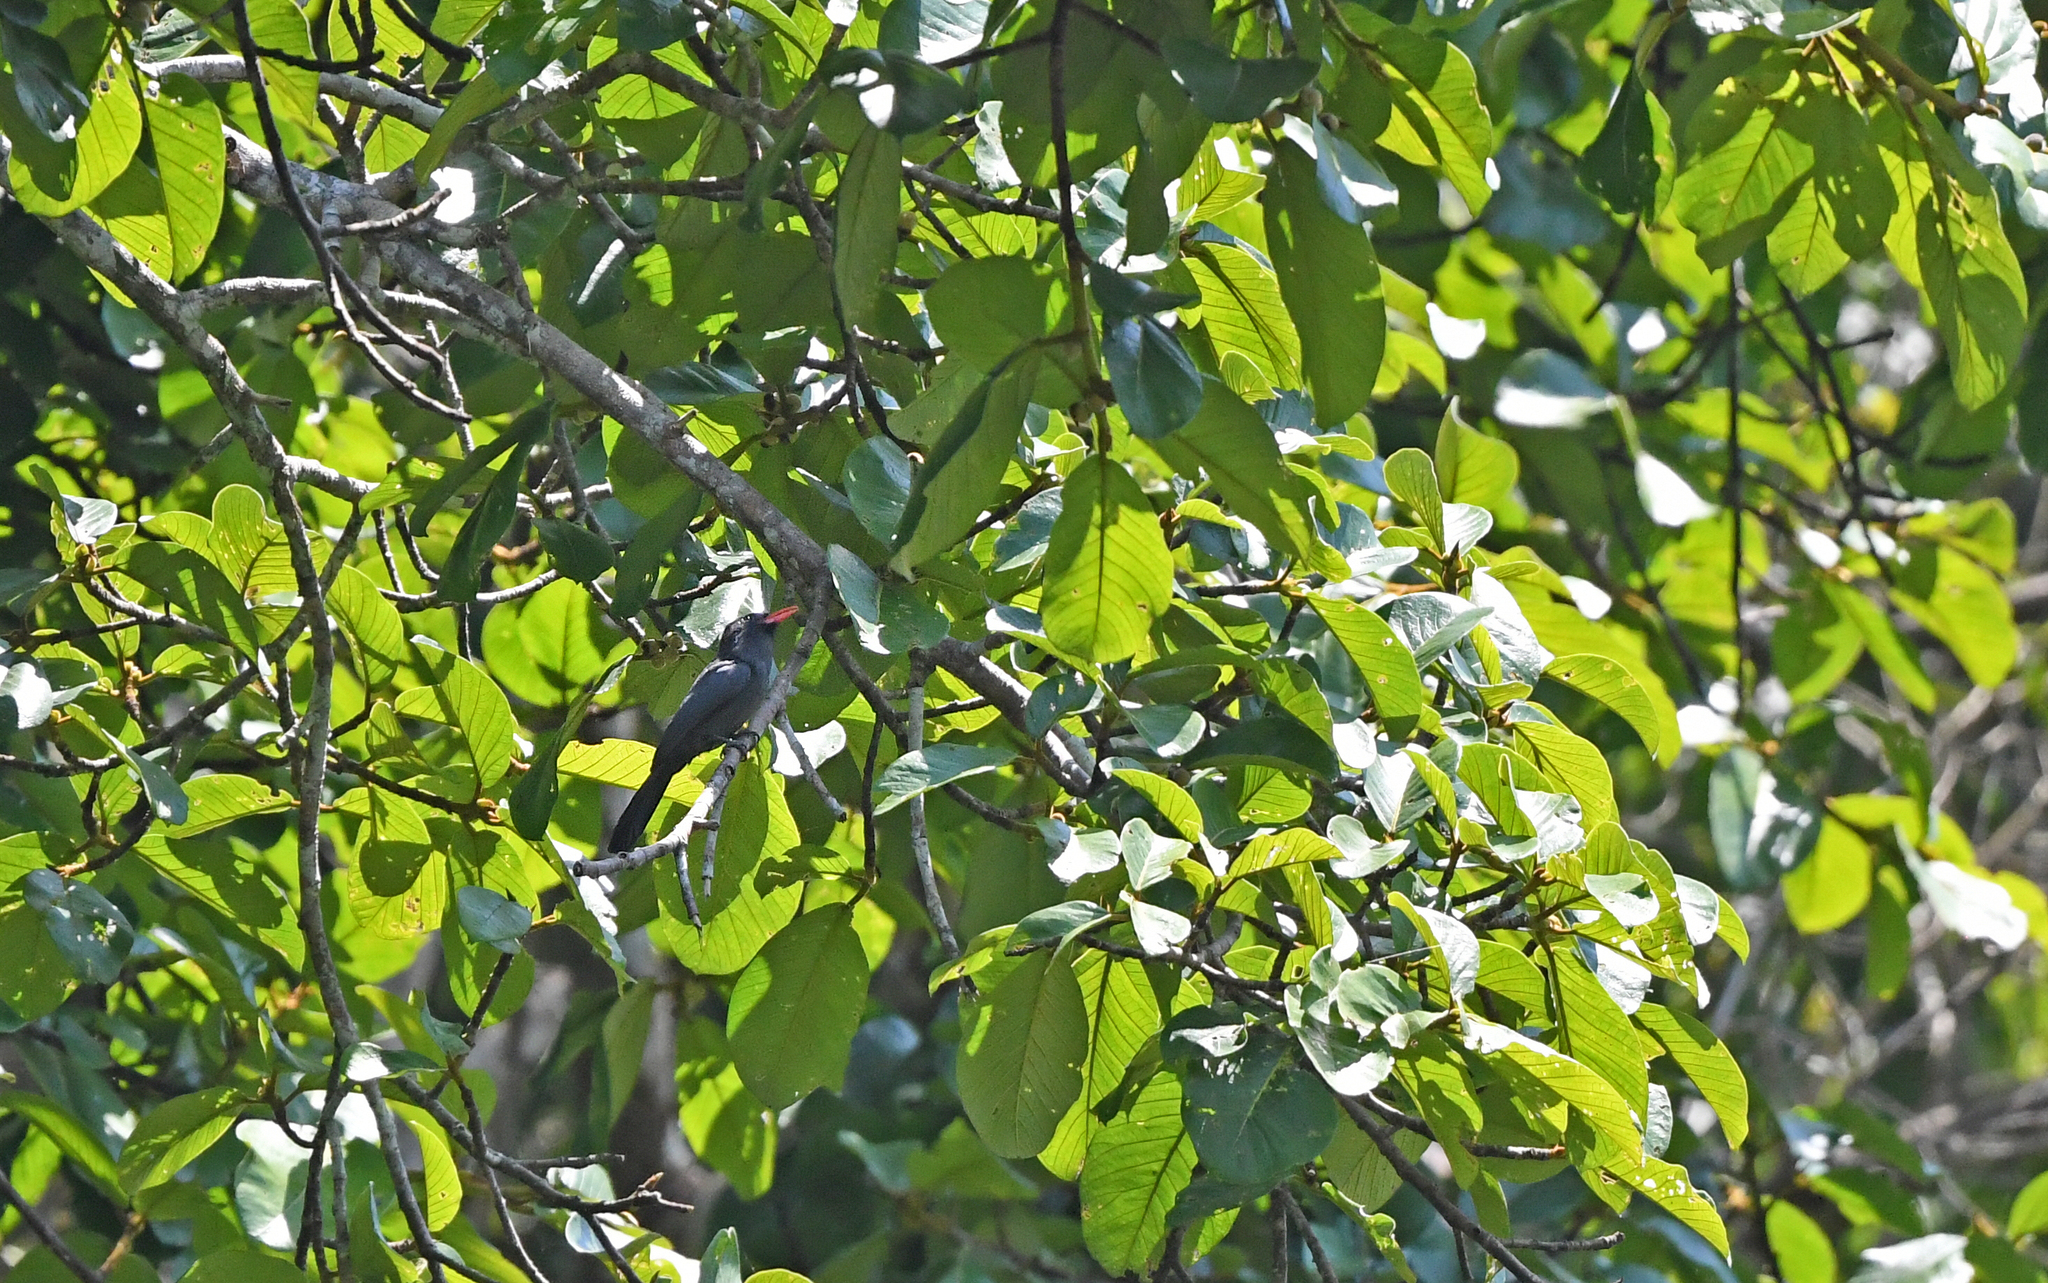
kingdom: Animalia
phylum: Chordata
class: Aves
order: Piciformes
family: Bucconidae
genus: Monasa
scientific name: Monasa nigrifrons
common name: Black-fronted nunbird
